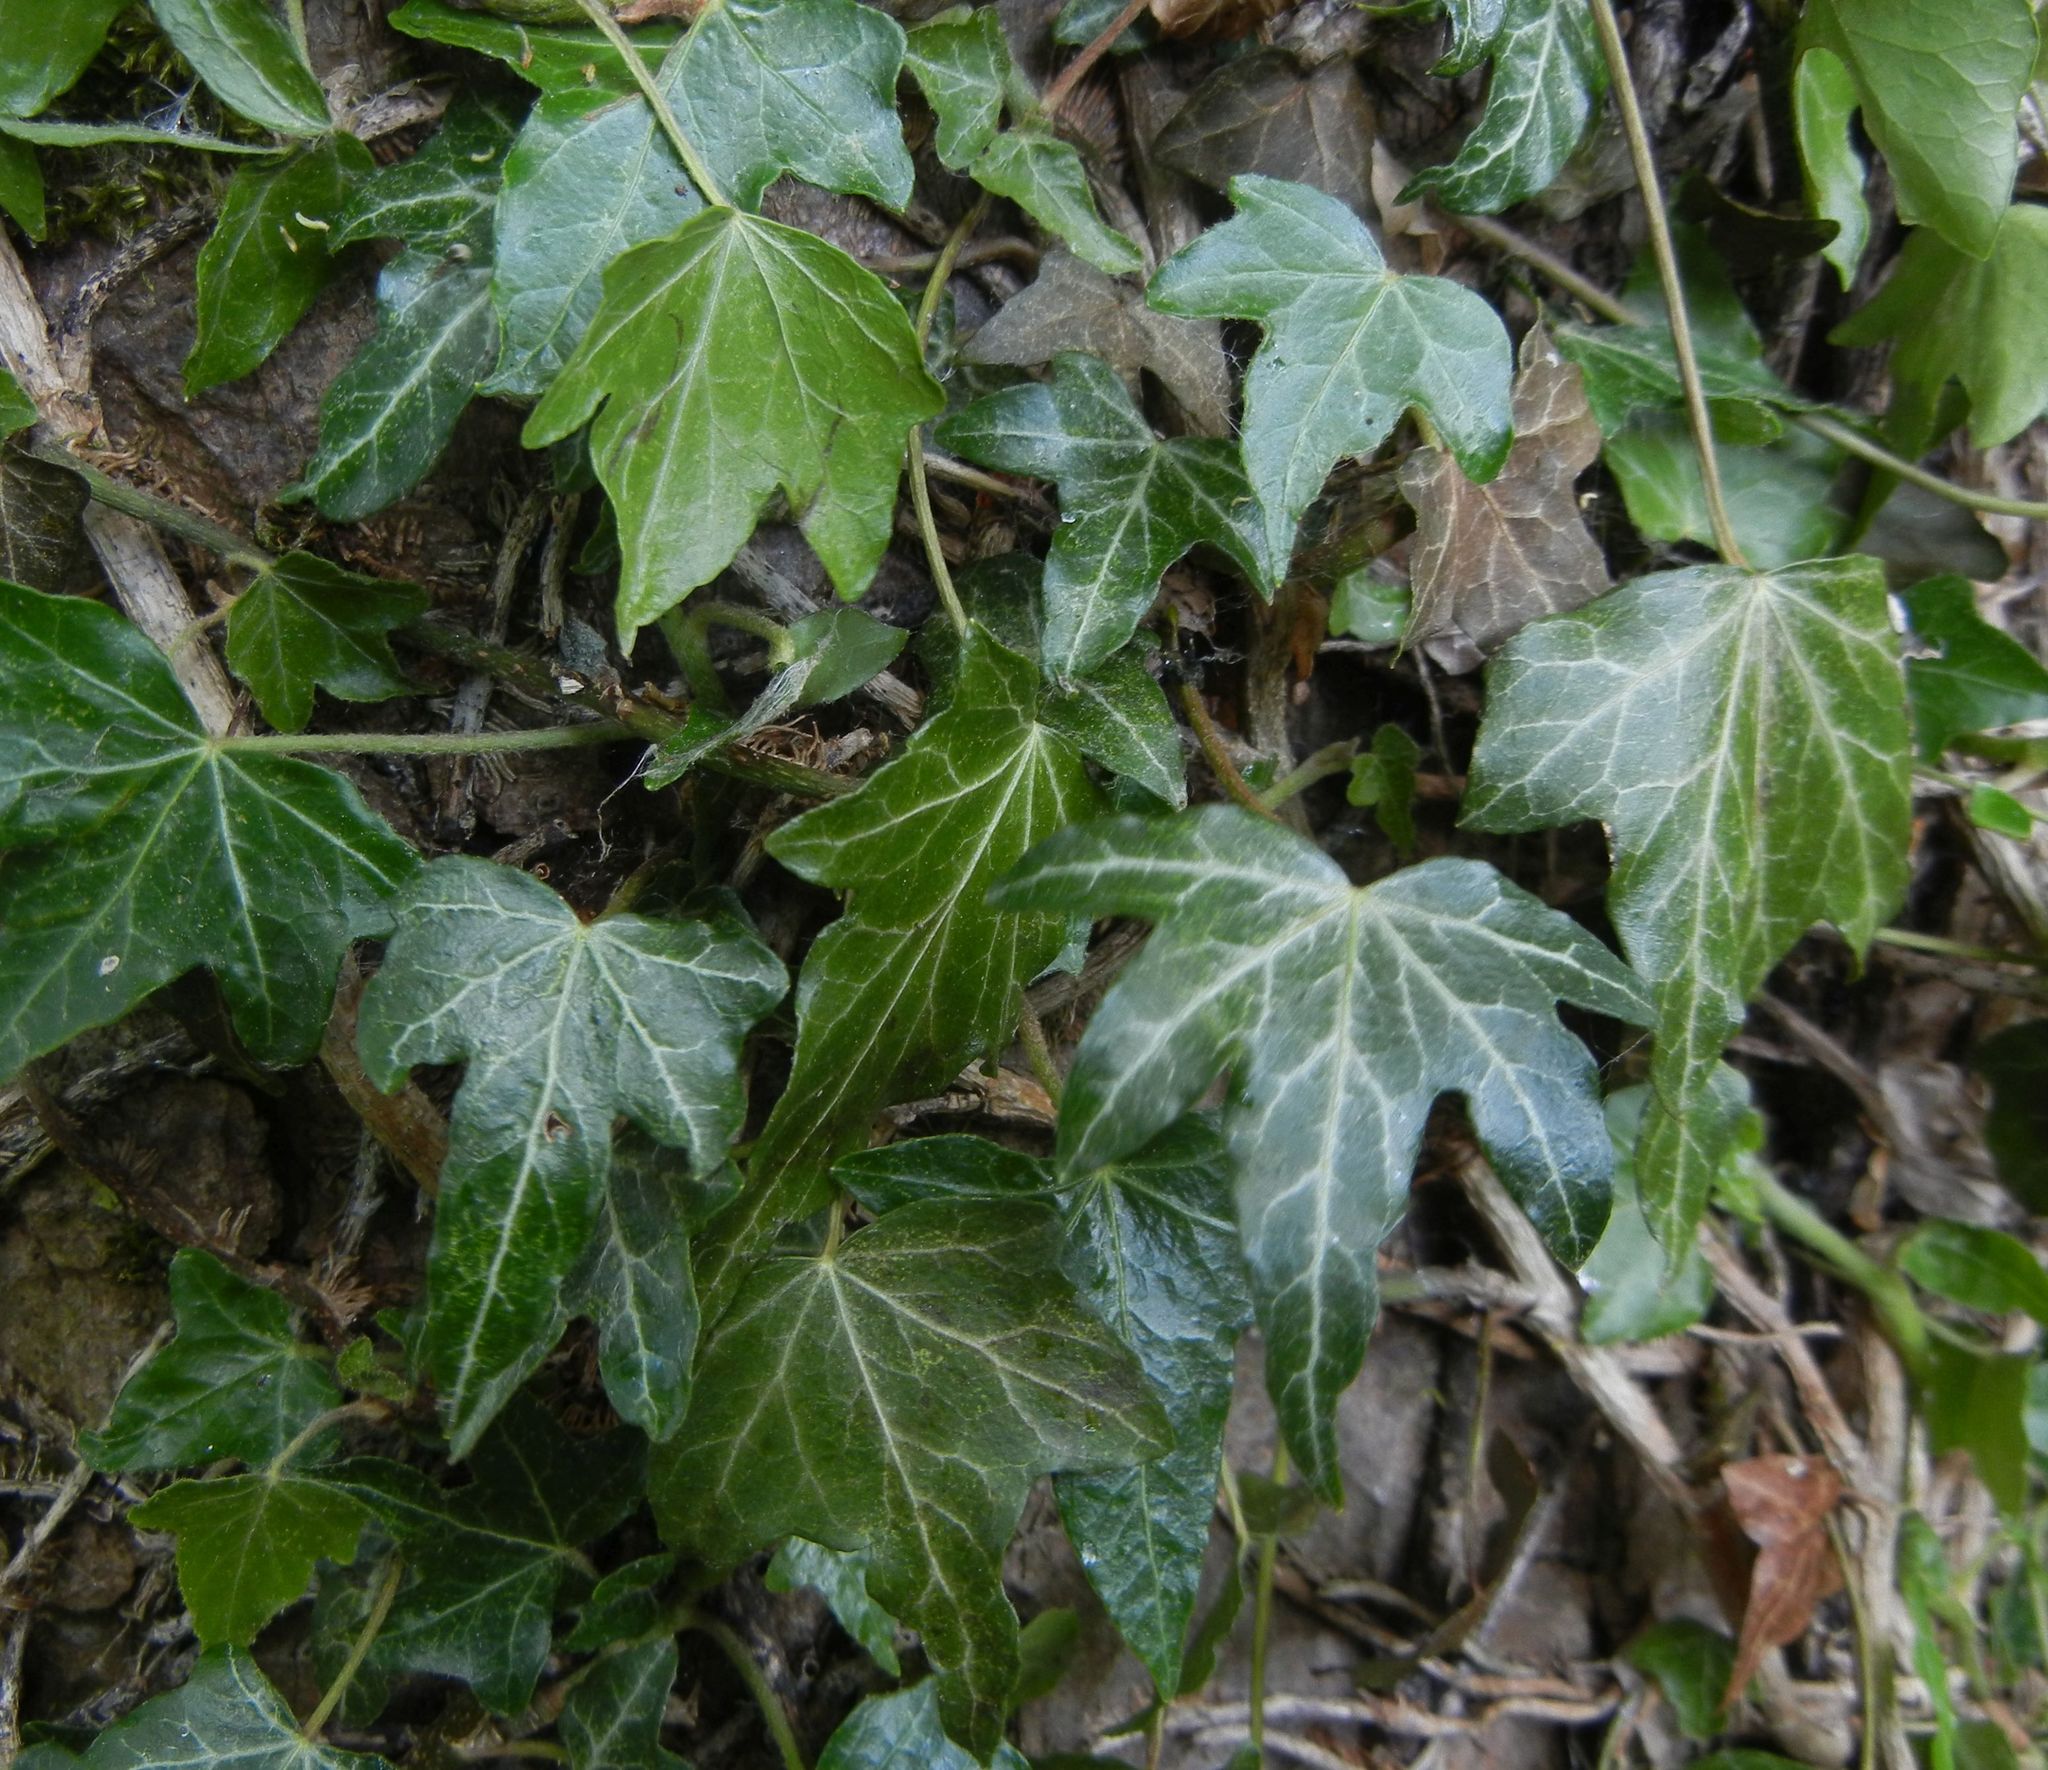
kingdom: Plantae
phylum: Tracheophyta
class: Magnoliopsida
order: Apiales
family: Araliaceae
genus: Hedera
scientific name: Hedera helix
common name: Ivy
